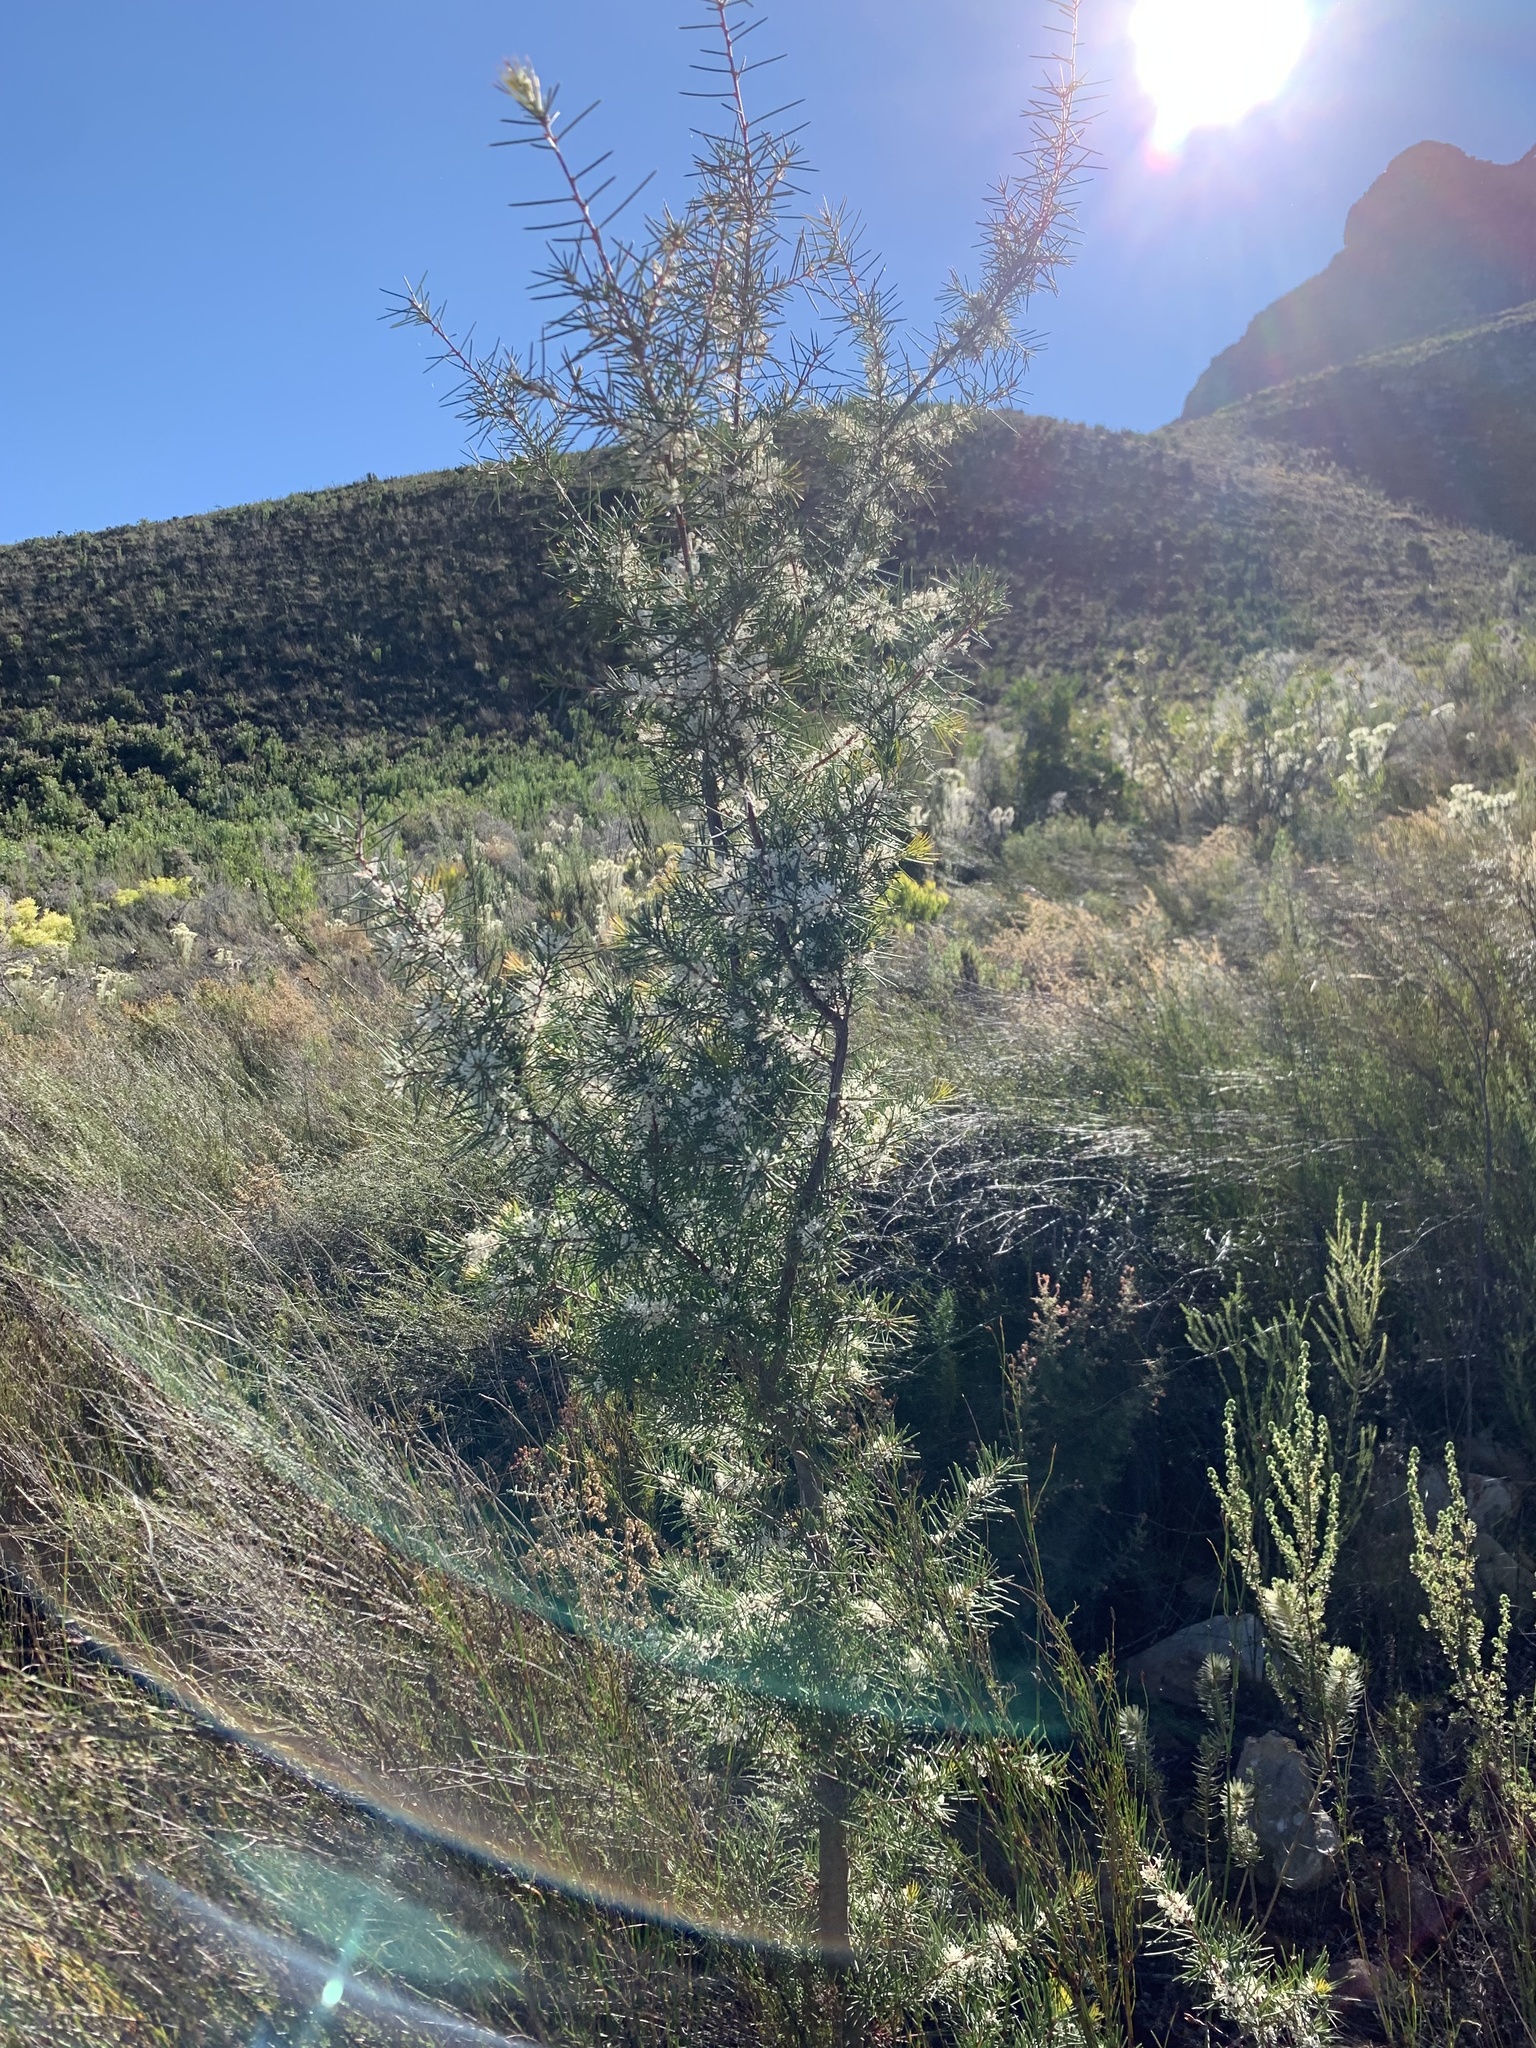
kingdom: Plantae
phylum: Tracheophyta
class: Magnoliopsida
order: Proteales
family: Proteaceae
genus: Hakea
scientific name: Hakea sericea
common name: Needle bush
